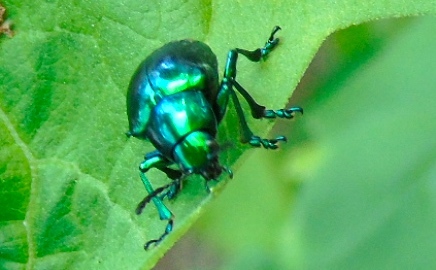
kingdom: Animalia
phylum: Arthropoda
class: Insecta
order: Coleoptera
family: Chrysomelidae
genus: Eumolpus
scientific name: Eumolpus robustus
